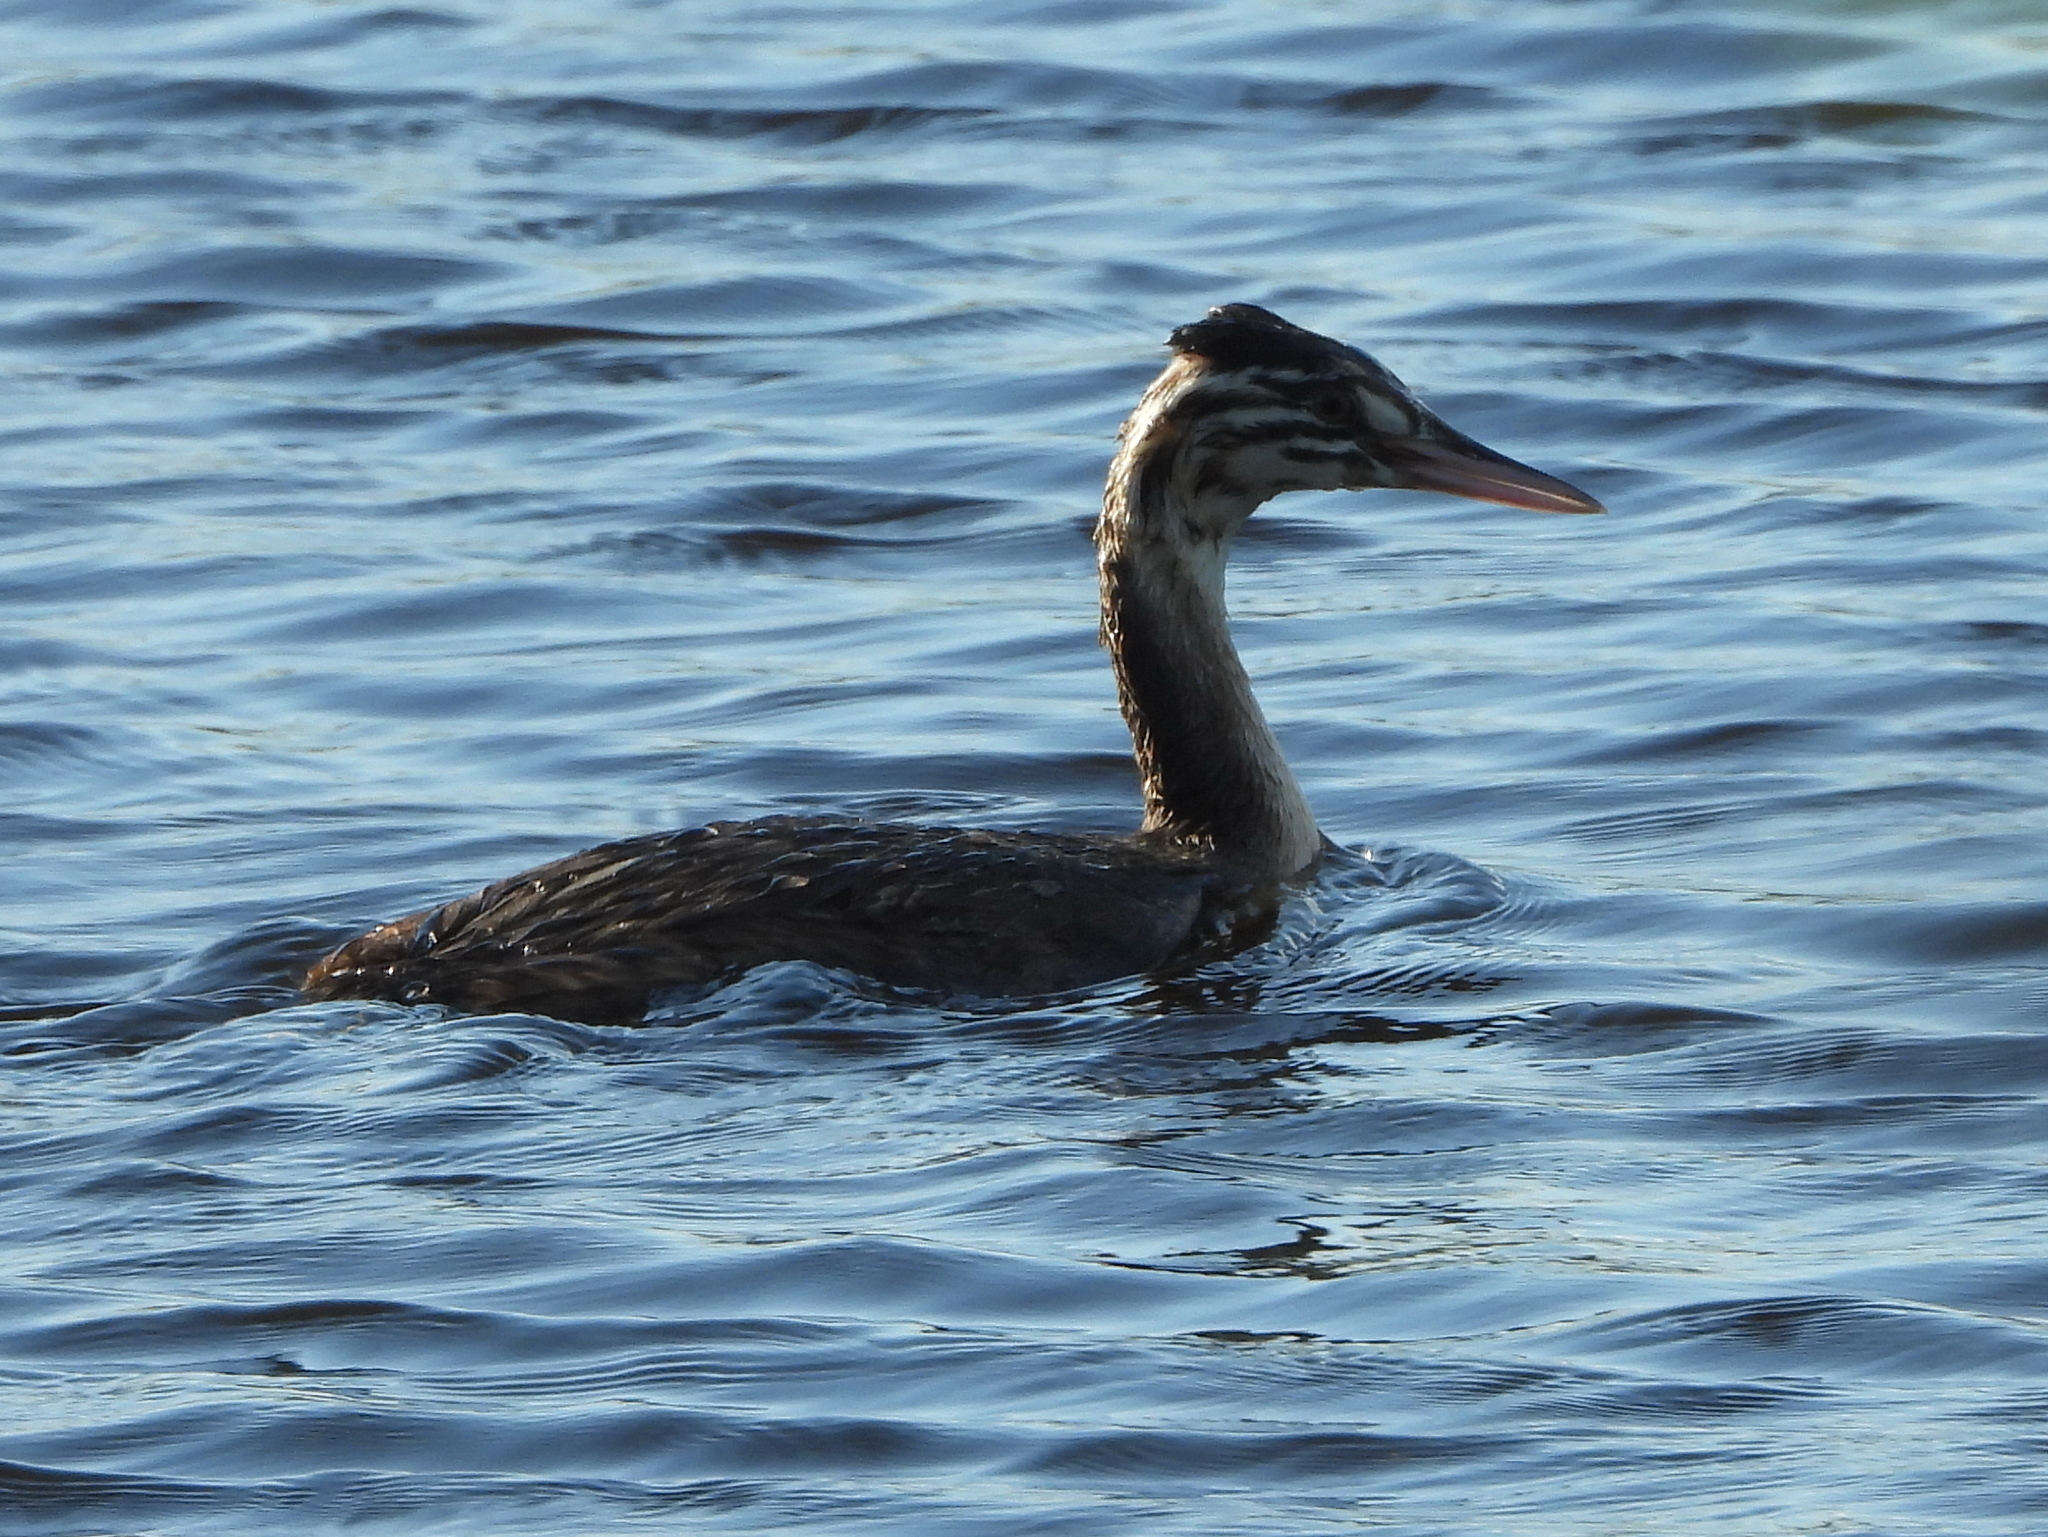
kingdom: Animalia
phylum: Chordata
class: Aves
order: Podicipediformes
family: Podicipedidae
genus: Podiceps
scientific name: Podiceps cristatus
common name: Great crested grebe
